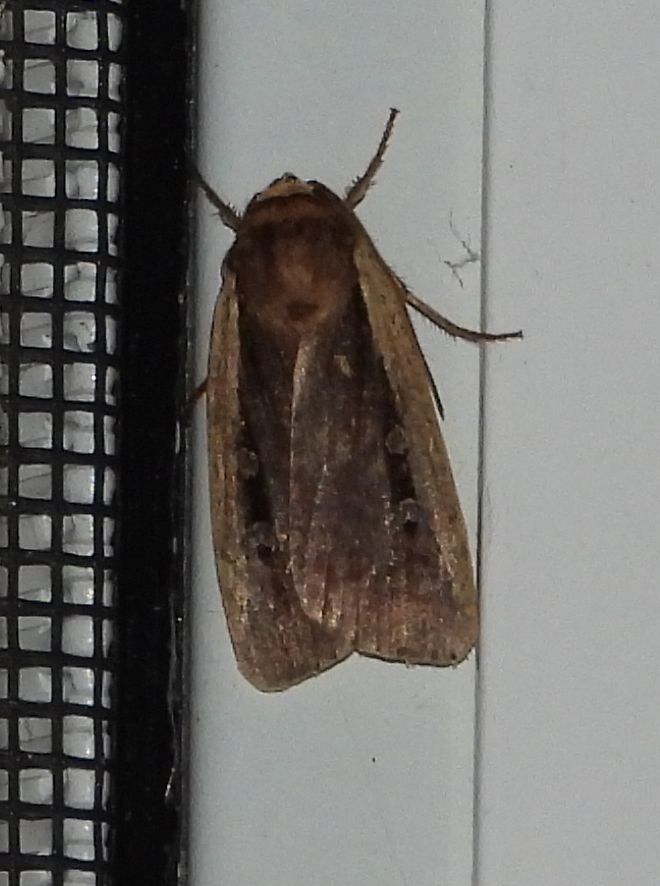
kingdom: Animalia
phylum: Arthropoda
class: Insecta
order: Lepidoptera
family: Noctuidae
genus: Ochropleura
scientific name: Ochropleura implecta
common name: Flame-shouldered dart
